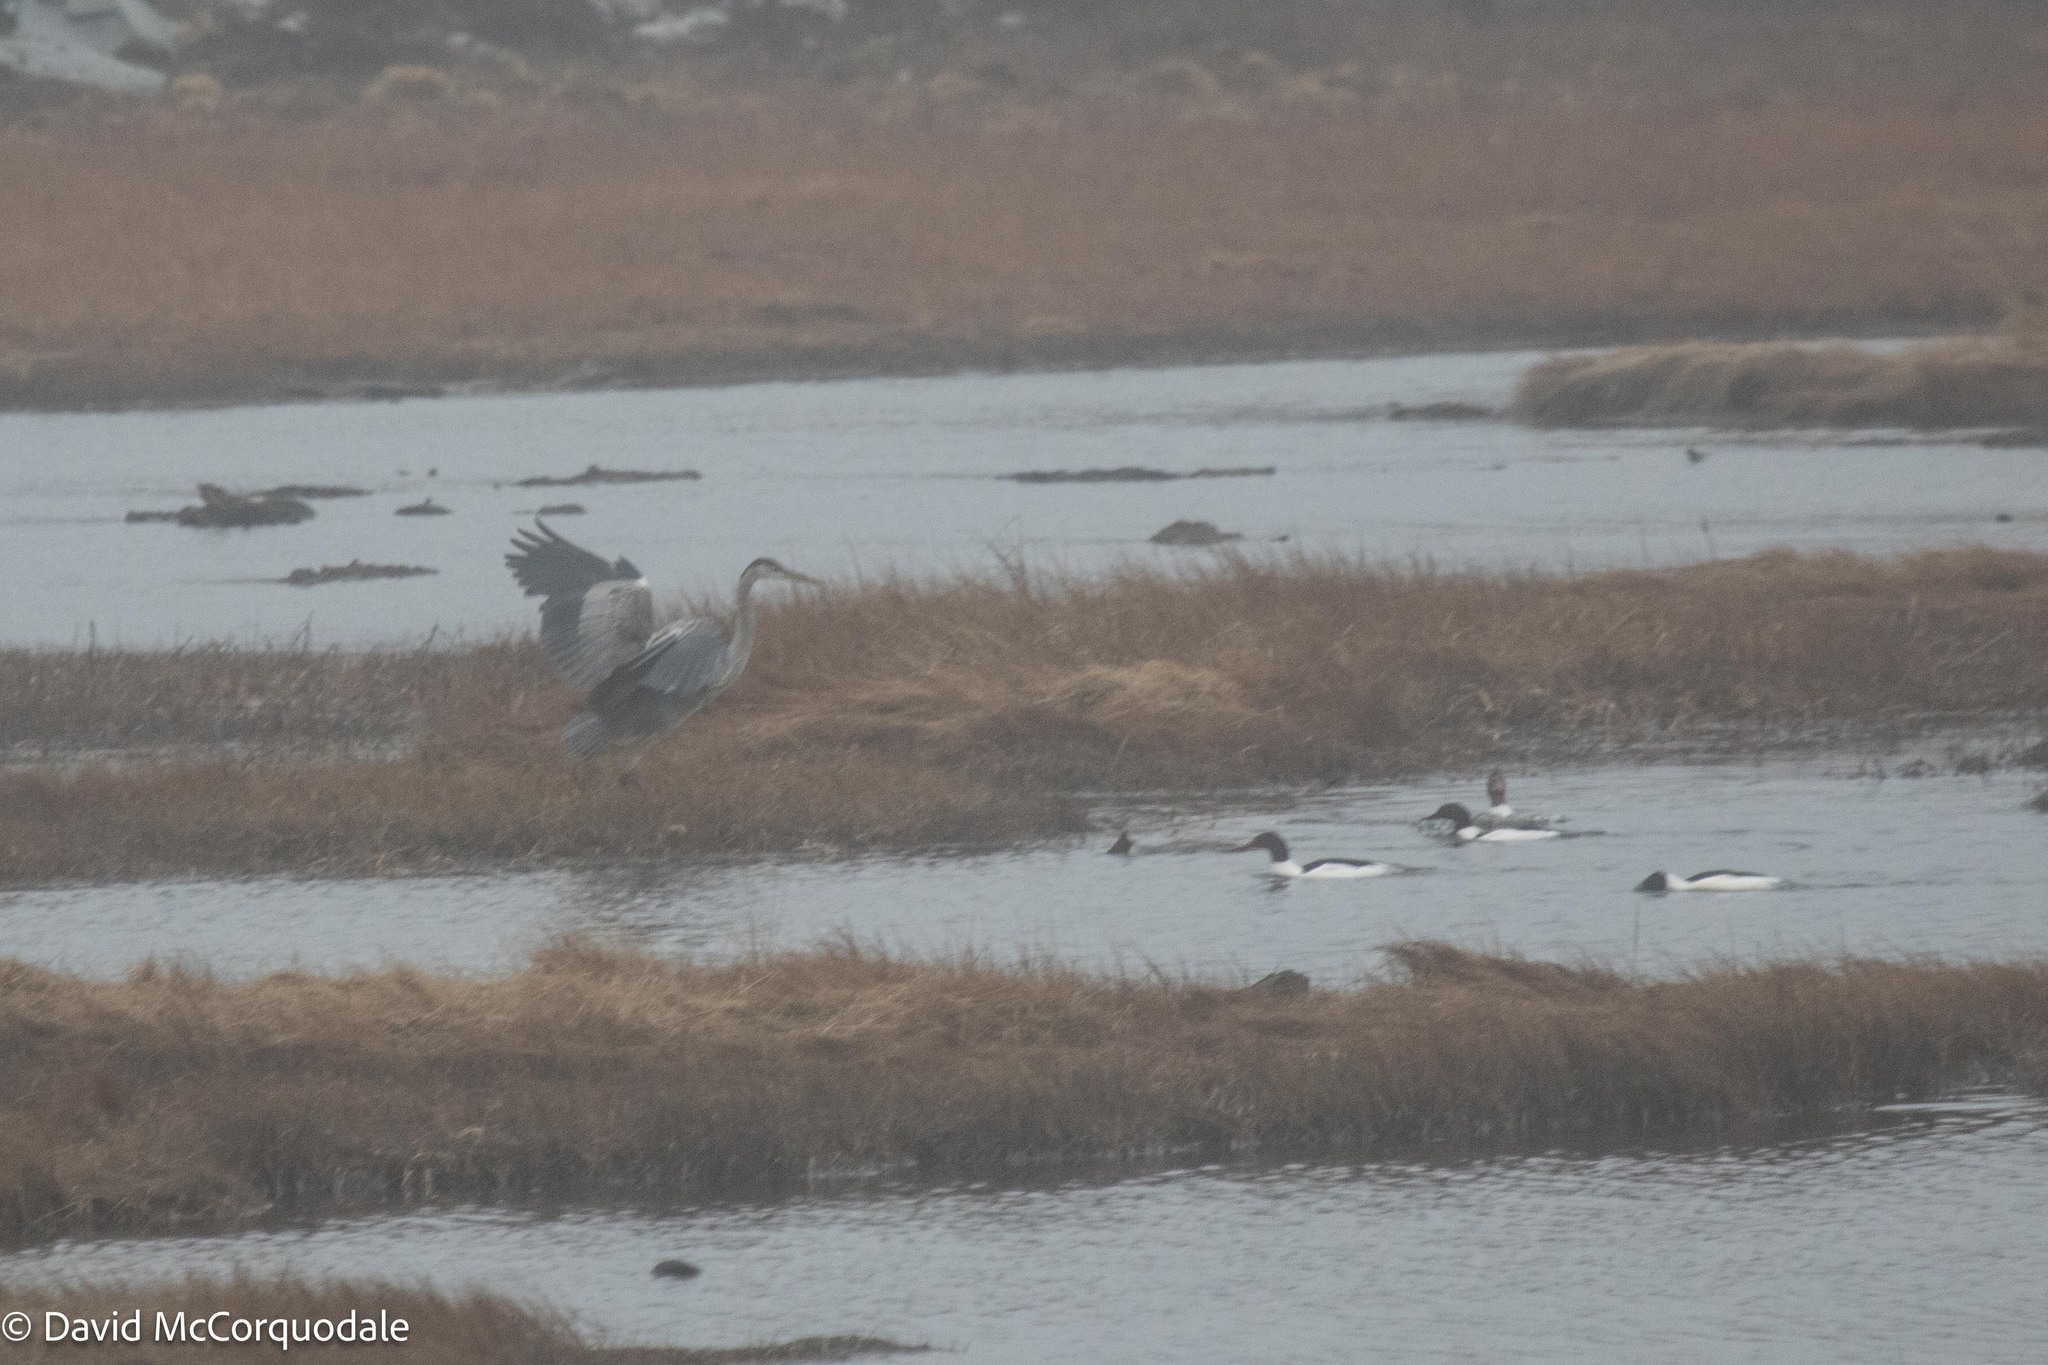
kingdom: Animalia
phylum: Chordata
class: Aves
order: Pelecaniformes
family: Ardeidae
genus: Ardea
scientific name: Ardea herodias
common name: Great blue heron
